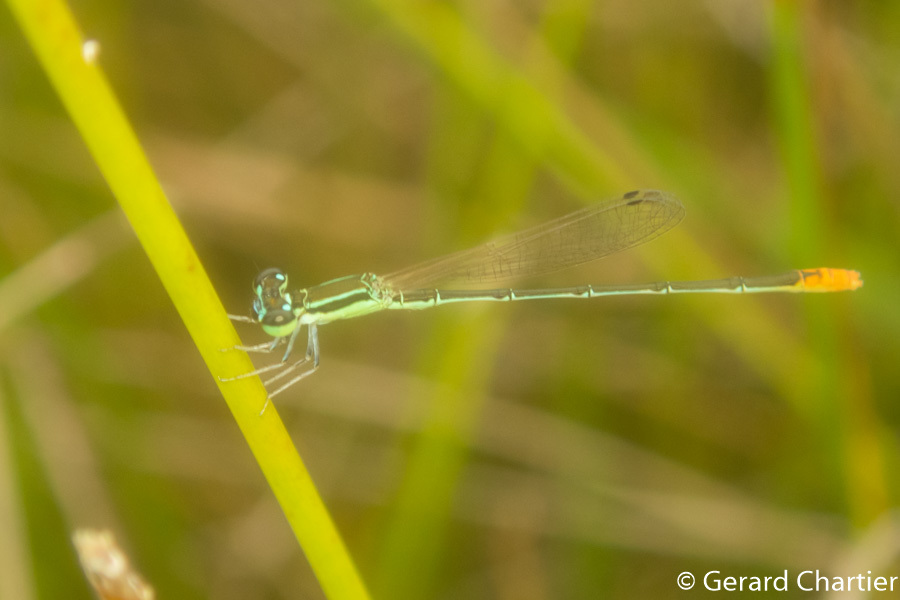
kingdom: Animalia
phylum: Arthropoda
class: Insecta
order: Odonata
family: Coenagrionidae
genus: Agriocnemis
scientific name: Agriocnemis pygmaea
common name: Pygmy wisp
